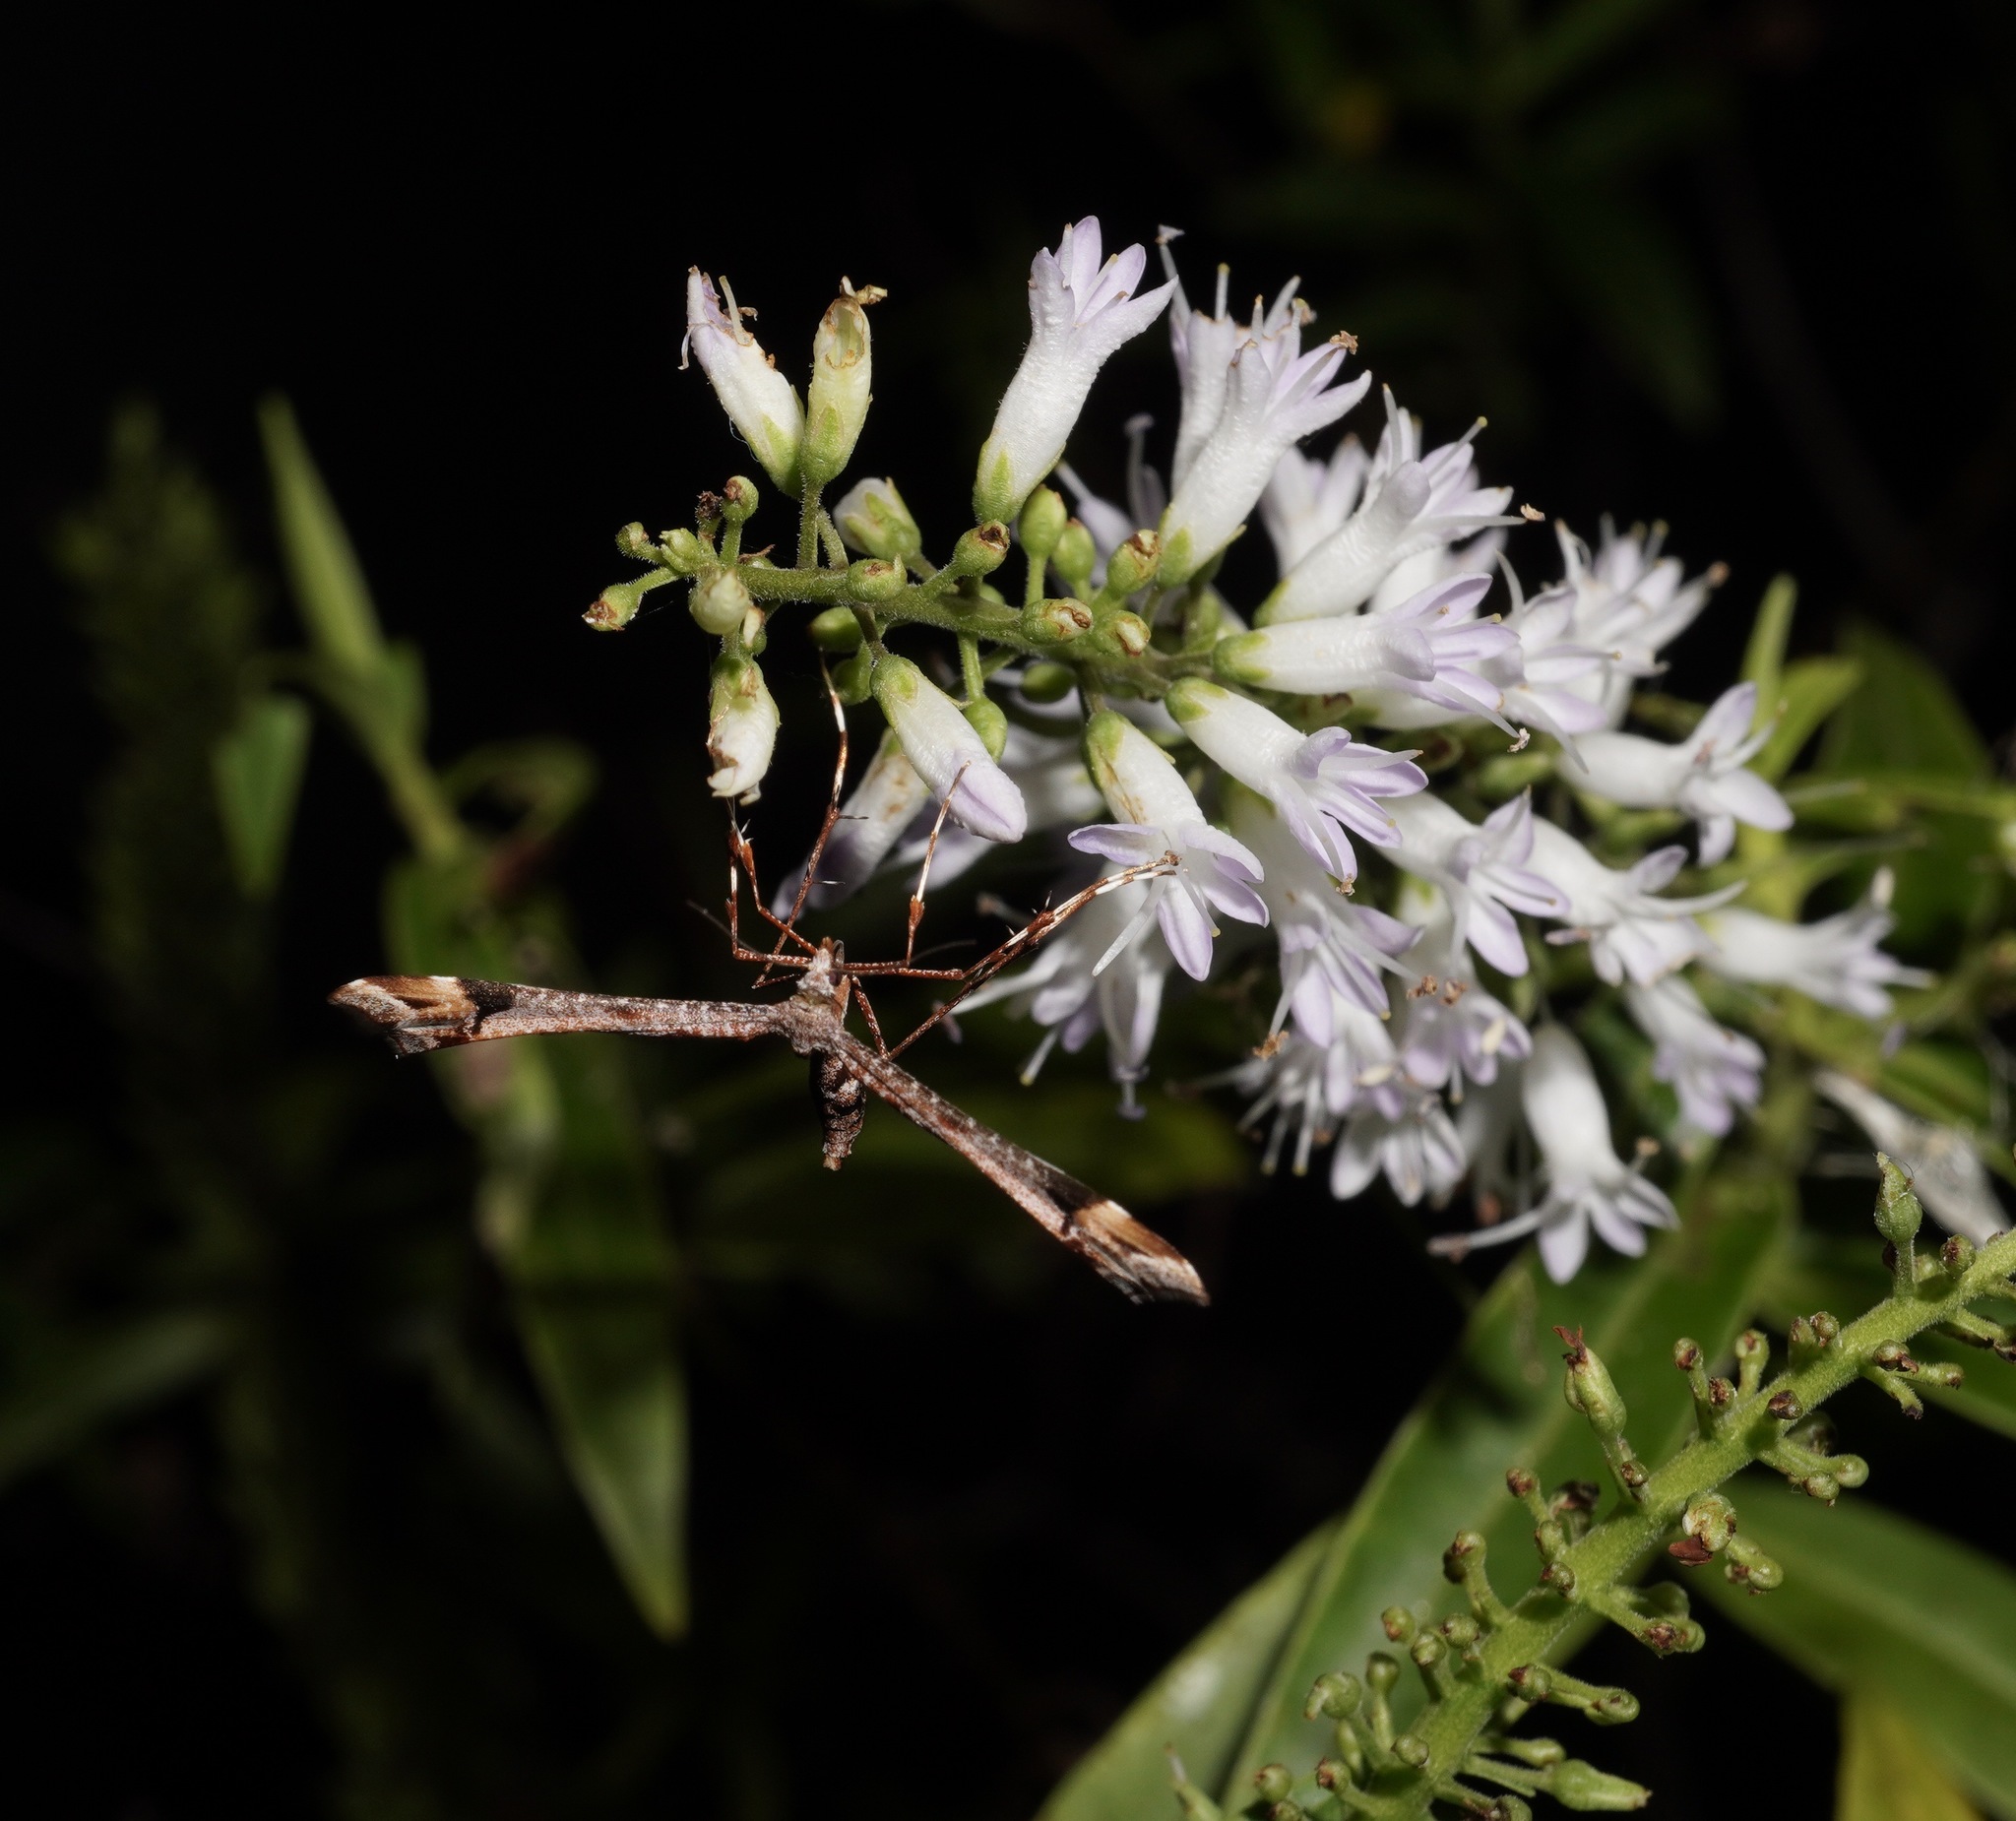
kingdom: Animalia
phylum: Arthropoda
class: Insecta
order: Lepidoptera
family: Pterophoridae
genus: Amblyptilia
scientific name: Amblyptilia falcatalis
